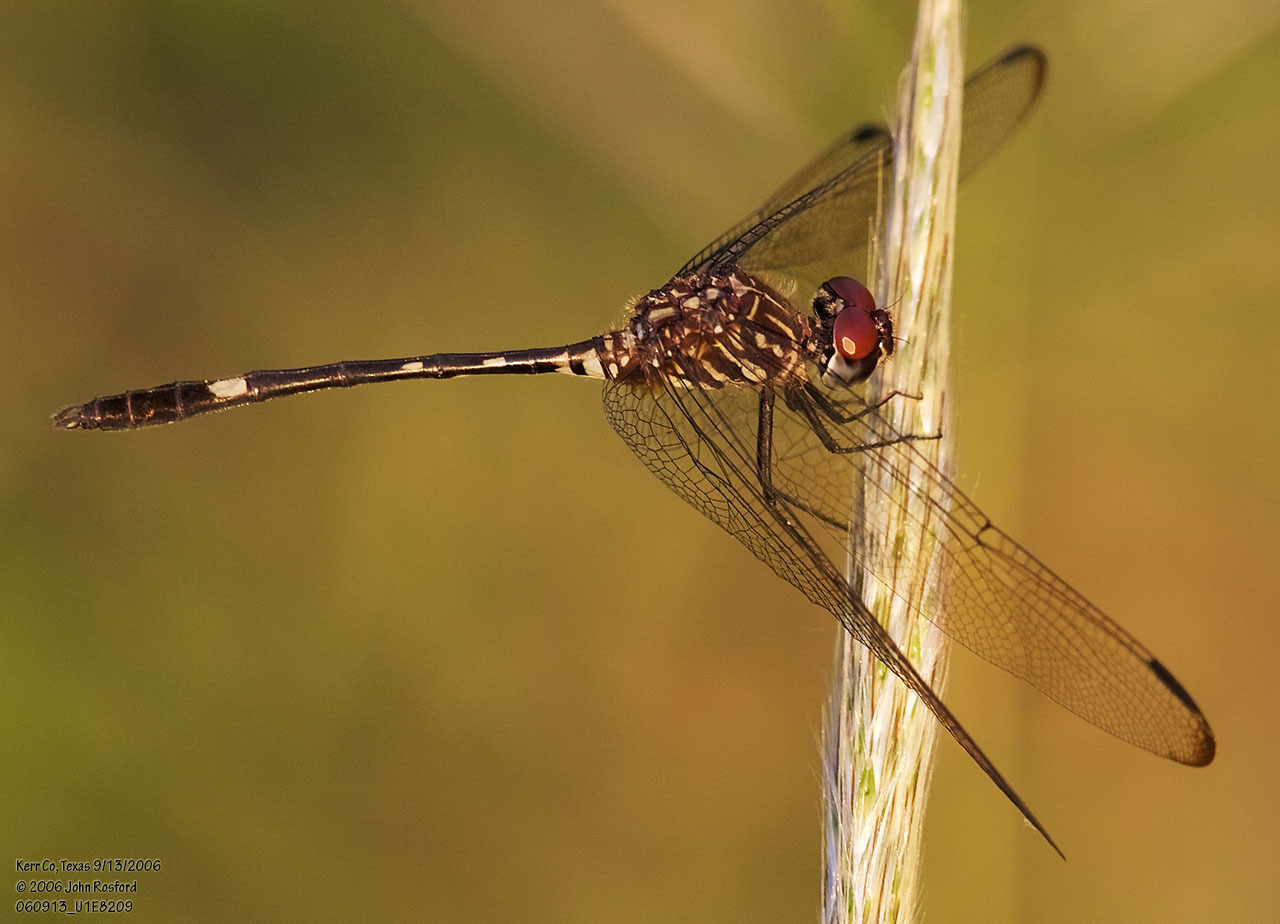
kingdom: Animalia
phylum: Arthropoda
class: Insecta
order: Odonata
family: Libellulidae
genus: Dythemis
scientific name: Dythemis velox
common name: Swift setwing
